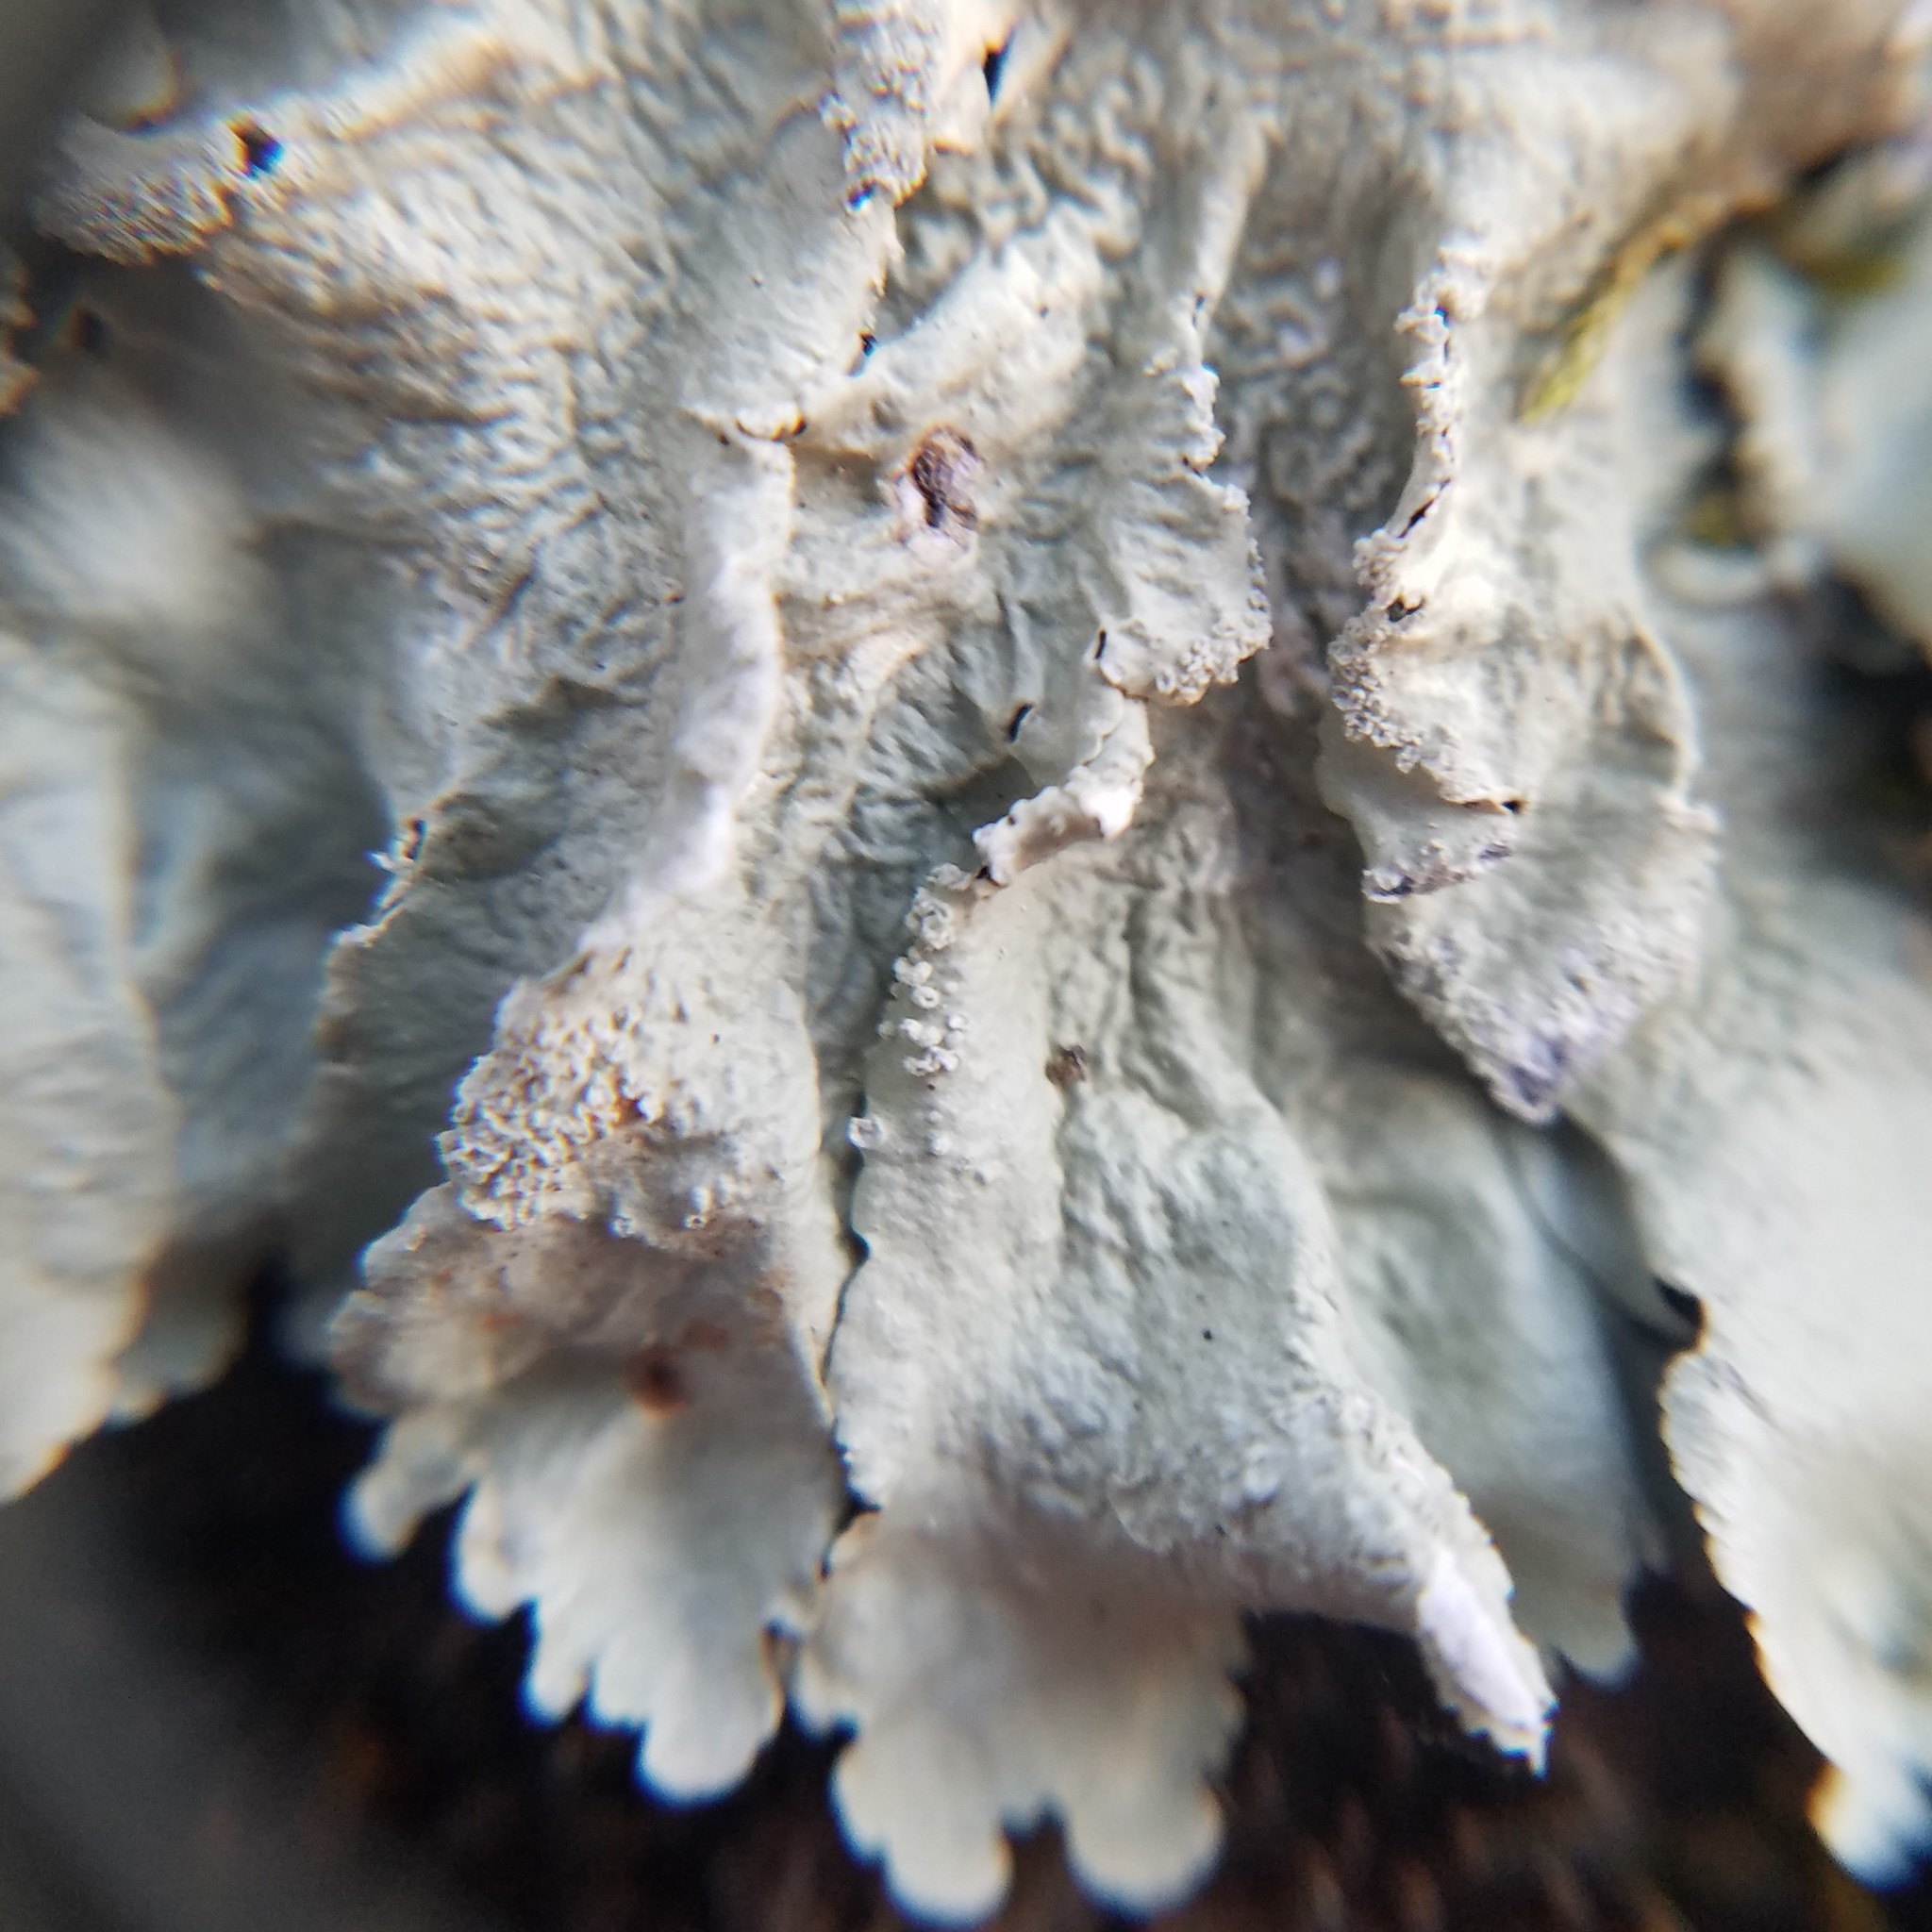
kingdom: Fungi
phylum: Ascomycota
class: Lecanoromycetes
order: Lecanorales
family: Parmeliaceae
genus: Flavoparmelia
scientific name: Flavoparmelia caperata
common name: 40-mile per hour lichen
